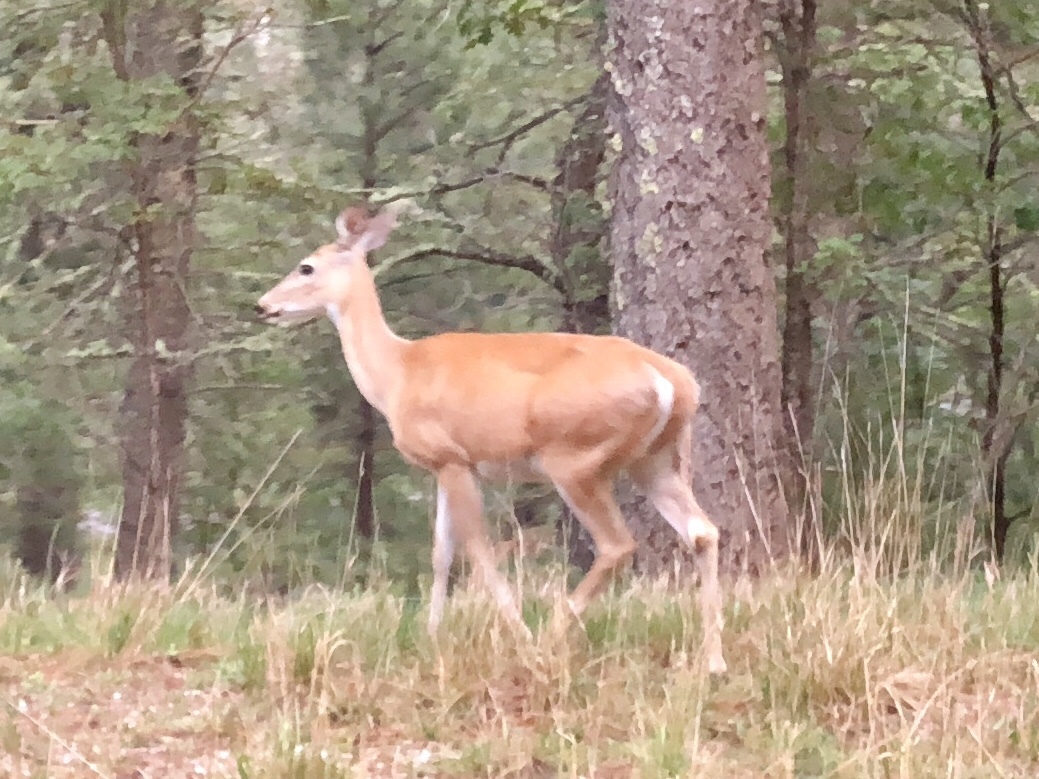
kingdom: Animalia
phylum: Chordata
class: Mammalia
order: Artiodactyla
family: Cervidae
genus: Odocoileus
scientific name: Odocoileus virginianus
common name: White-tailed deer
